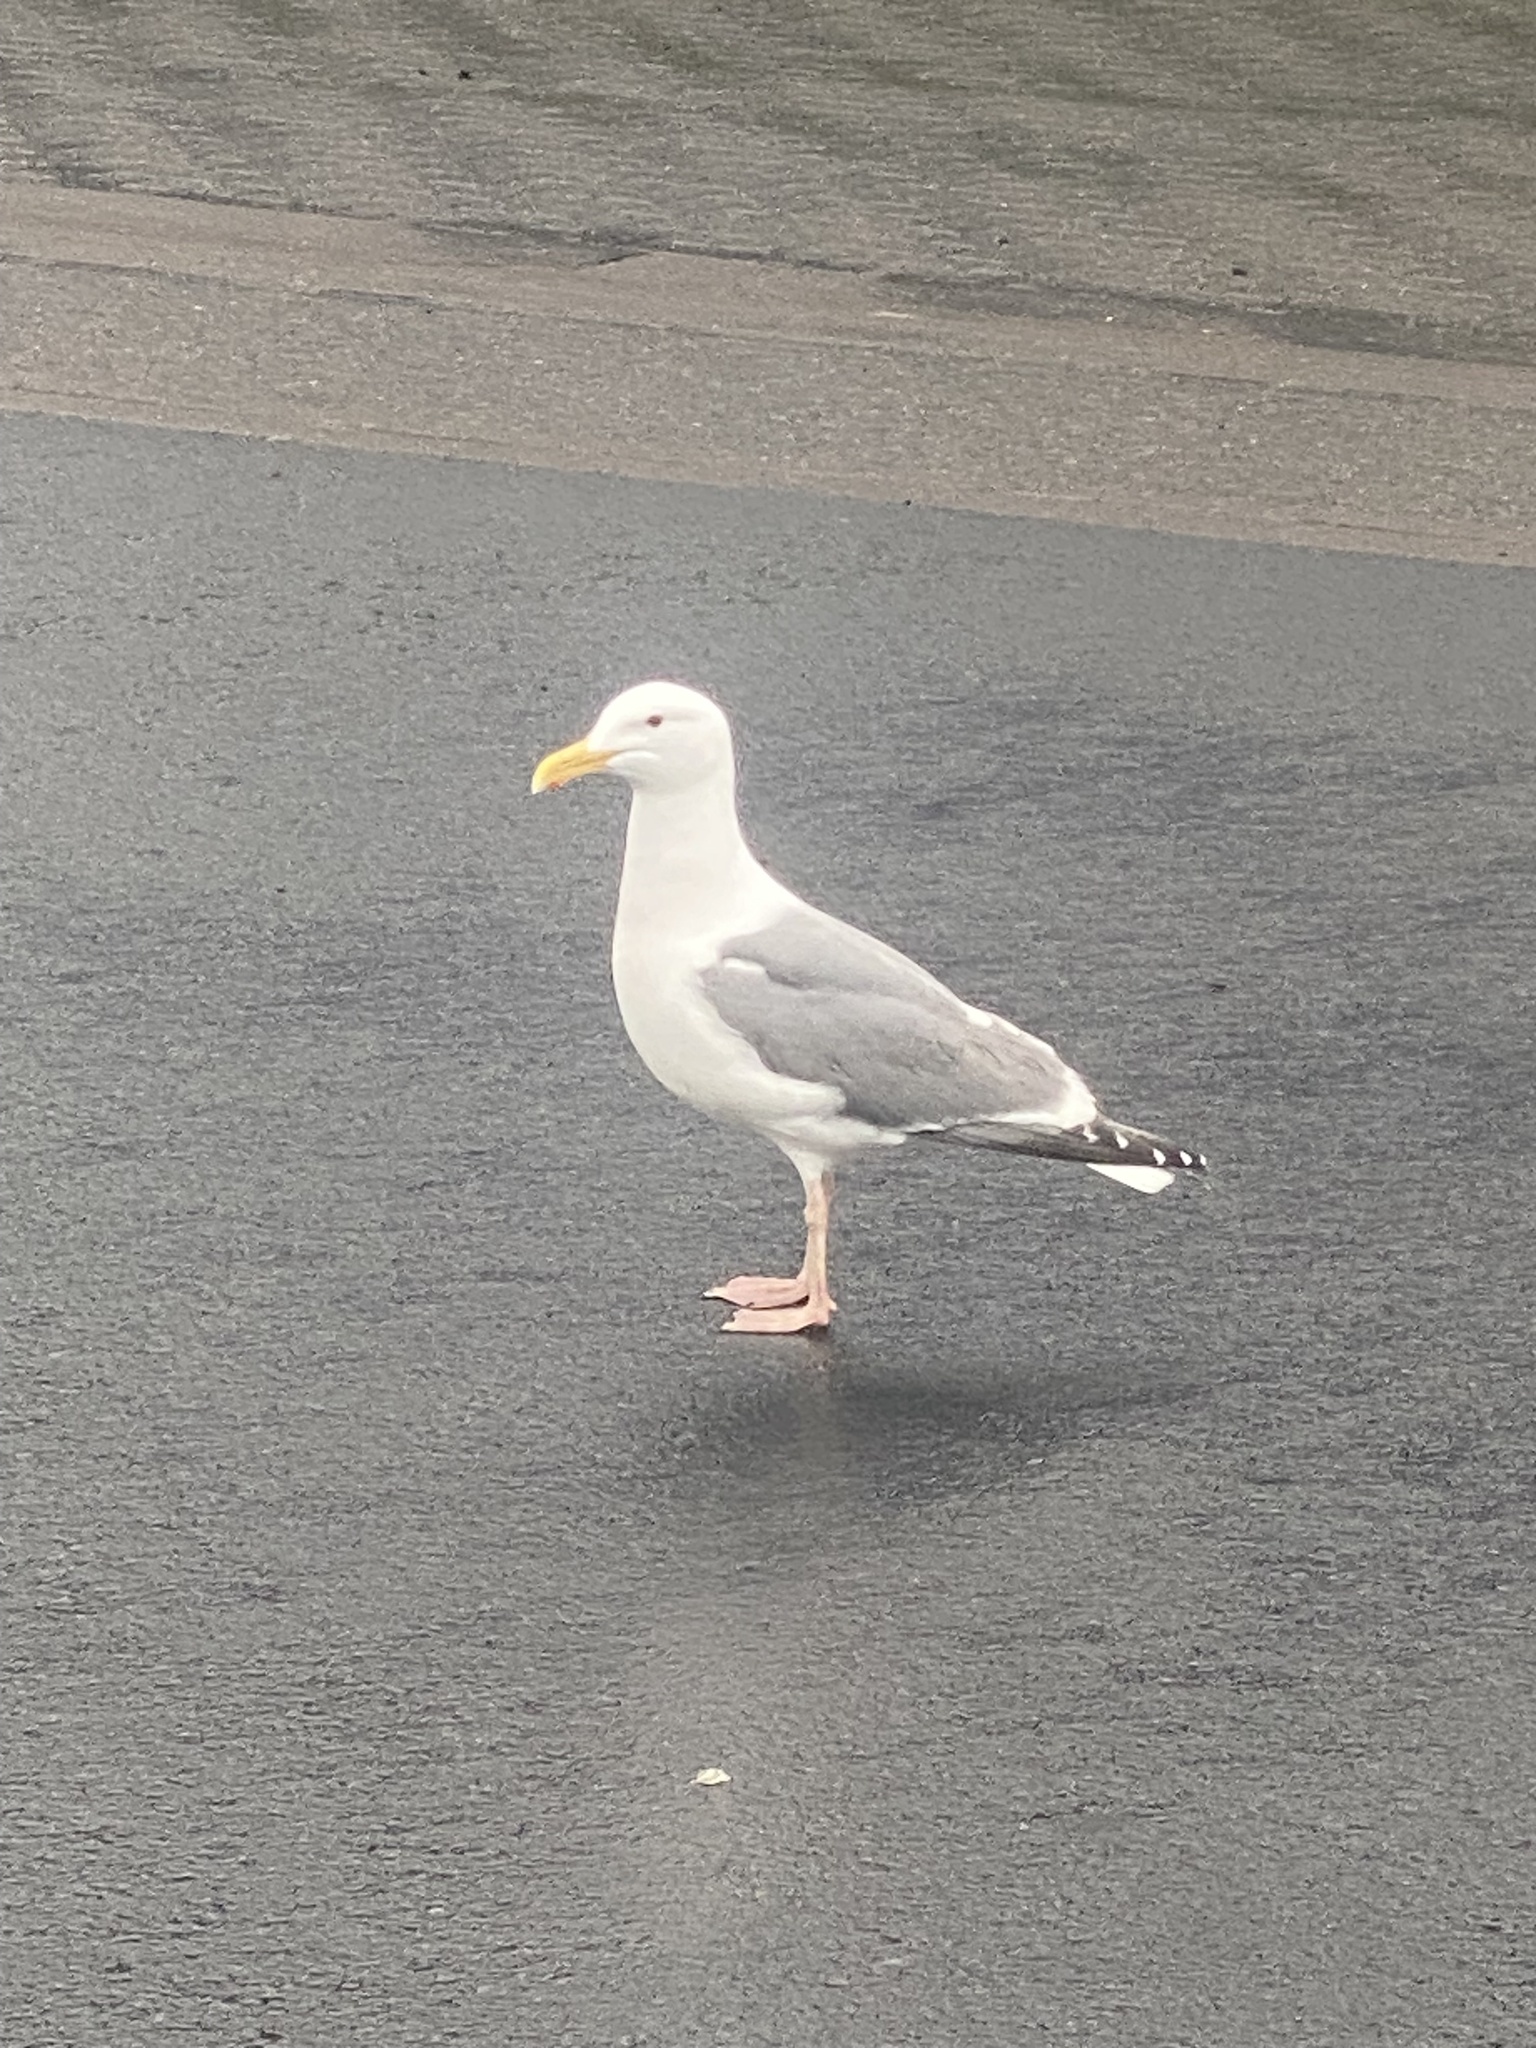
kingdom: Animalia
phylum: Chordata
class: Aves
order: Charadriiformes
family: Laridae
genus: Larus
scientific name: Larus occidentalis
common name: Western gull
